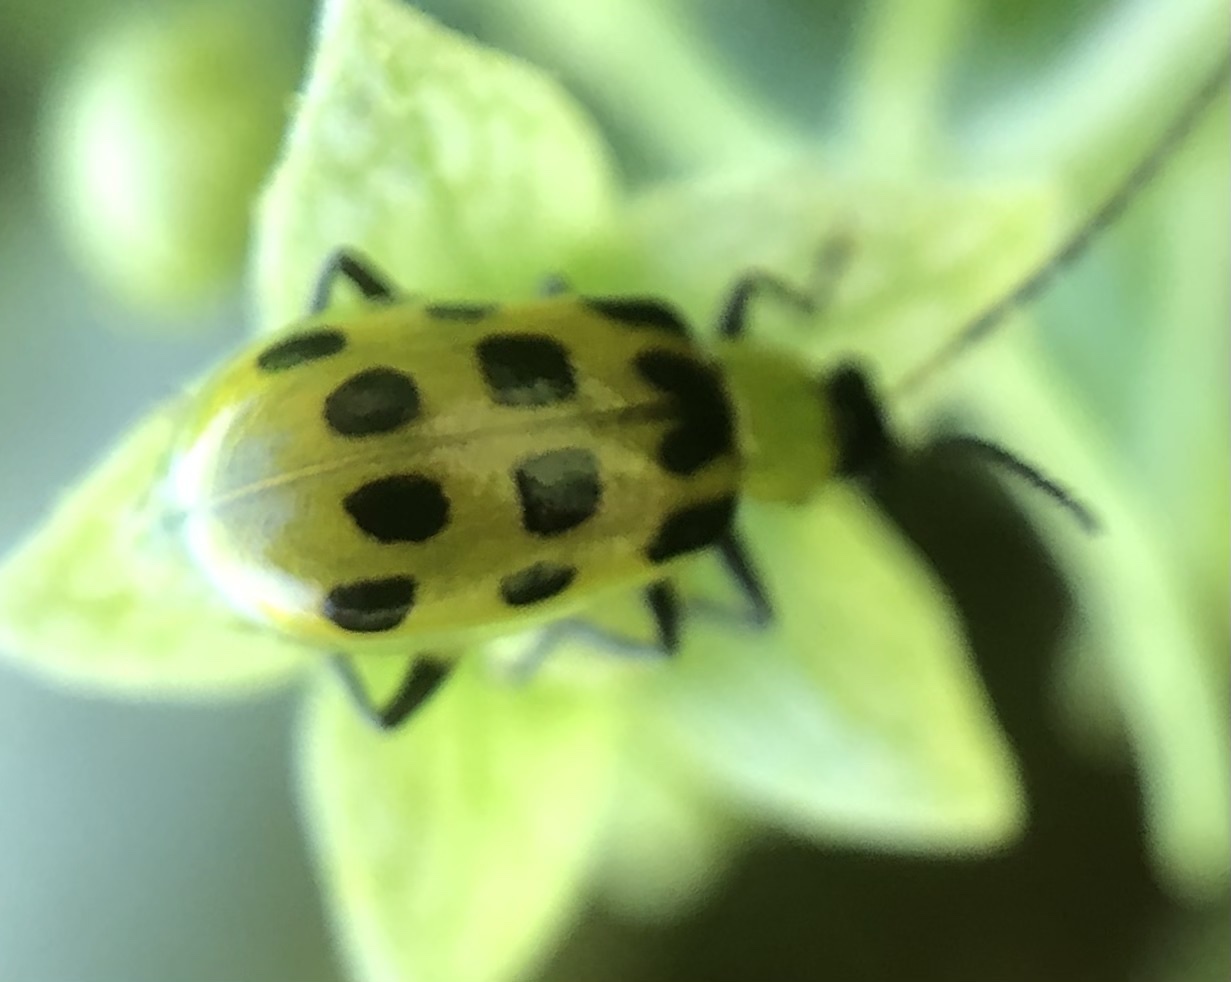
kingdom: Animalia
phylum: Arthropoda
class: Insecta
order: Coleoptera
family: Chrysomelidae
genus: Diabrotica
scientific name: Diabrotica undecimpunctata
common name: Spotted cucumber beetle
